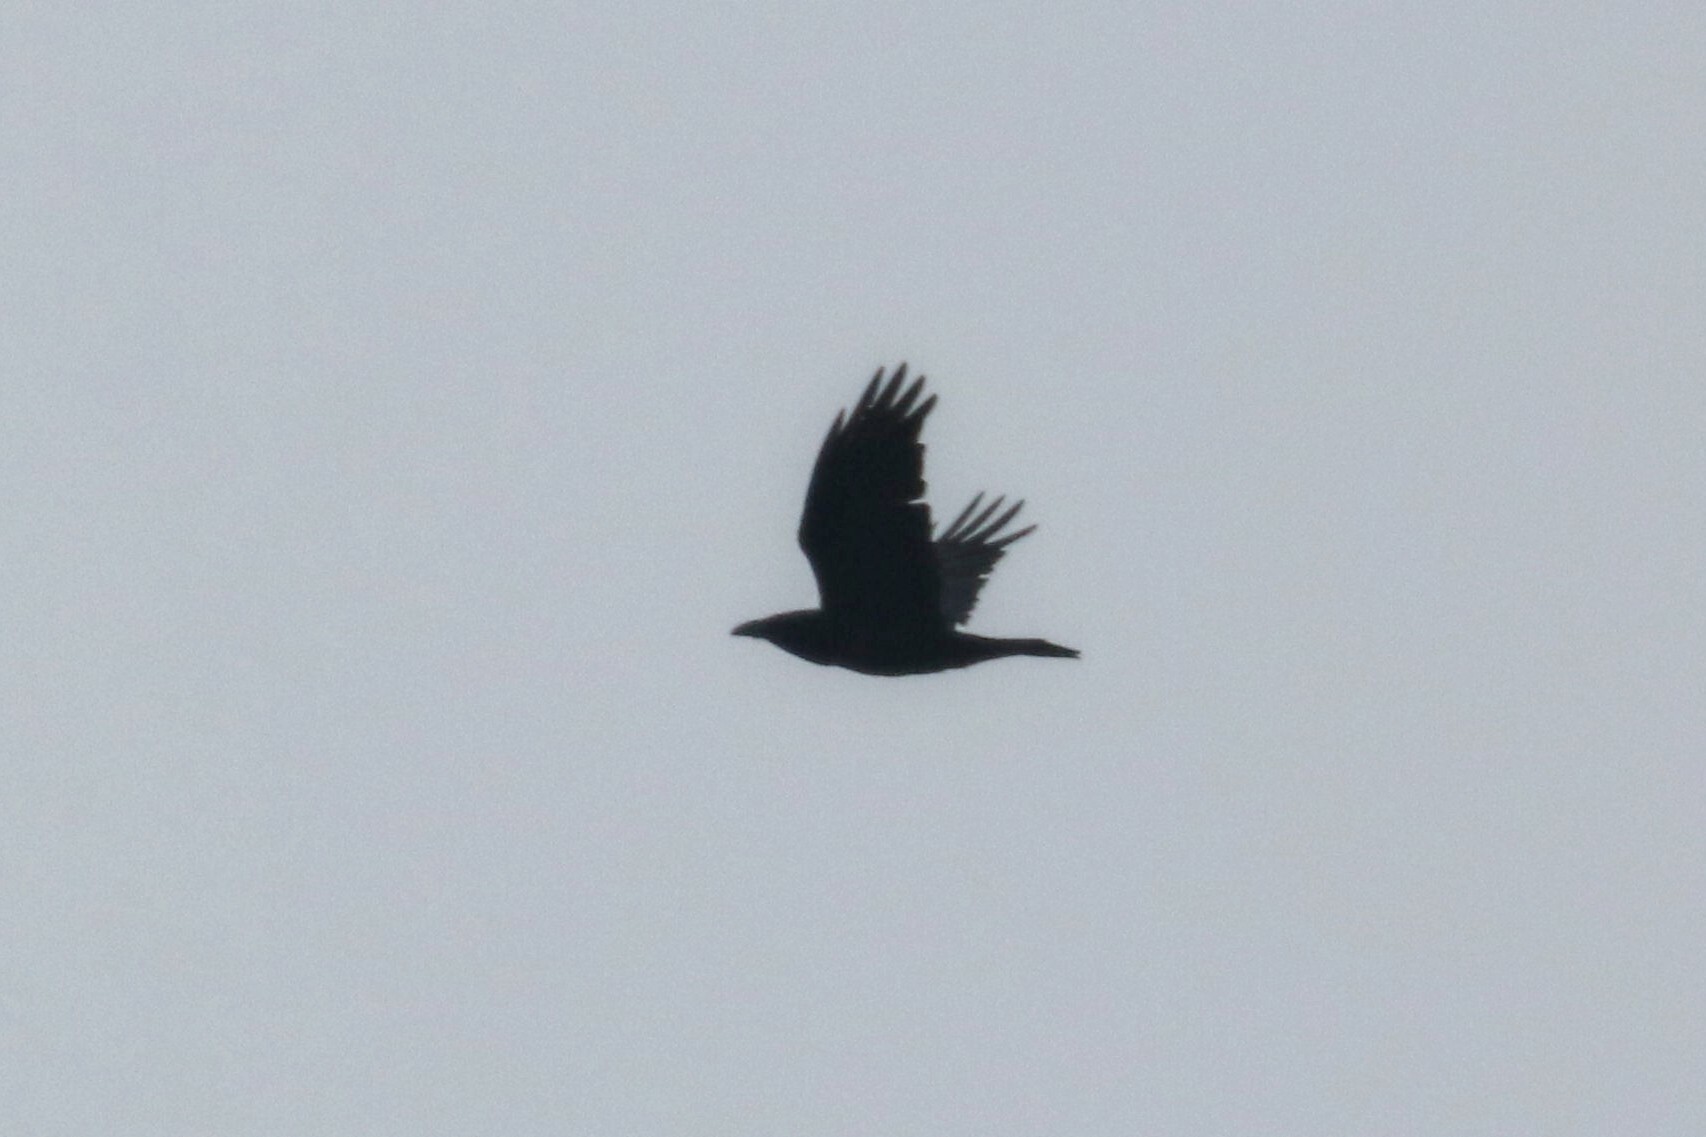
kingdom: Animalia
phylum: Chordata
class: Aves
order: Passeriformes
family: Corvidae
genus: Corvus
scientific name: Corvus corax
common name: Common raven
